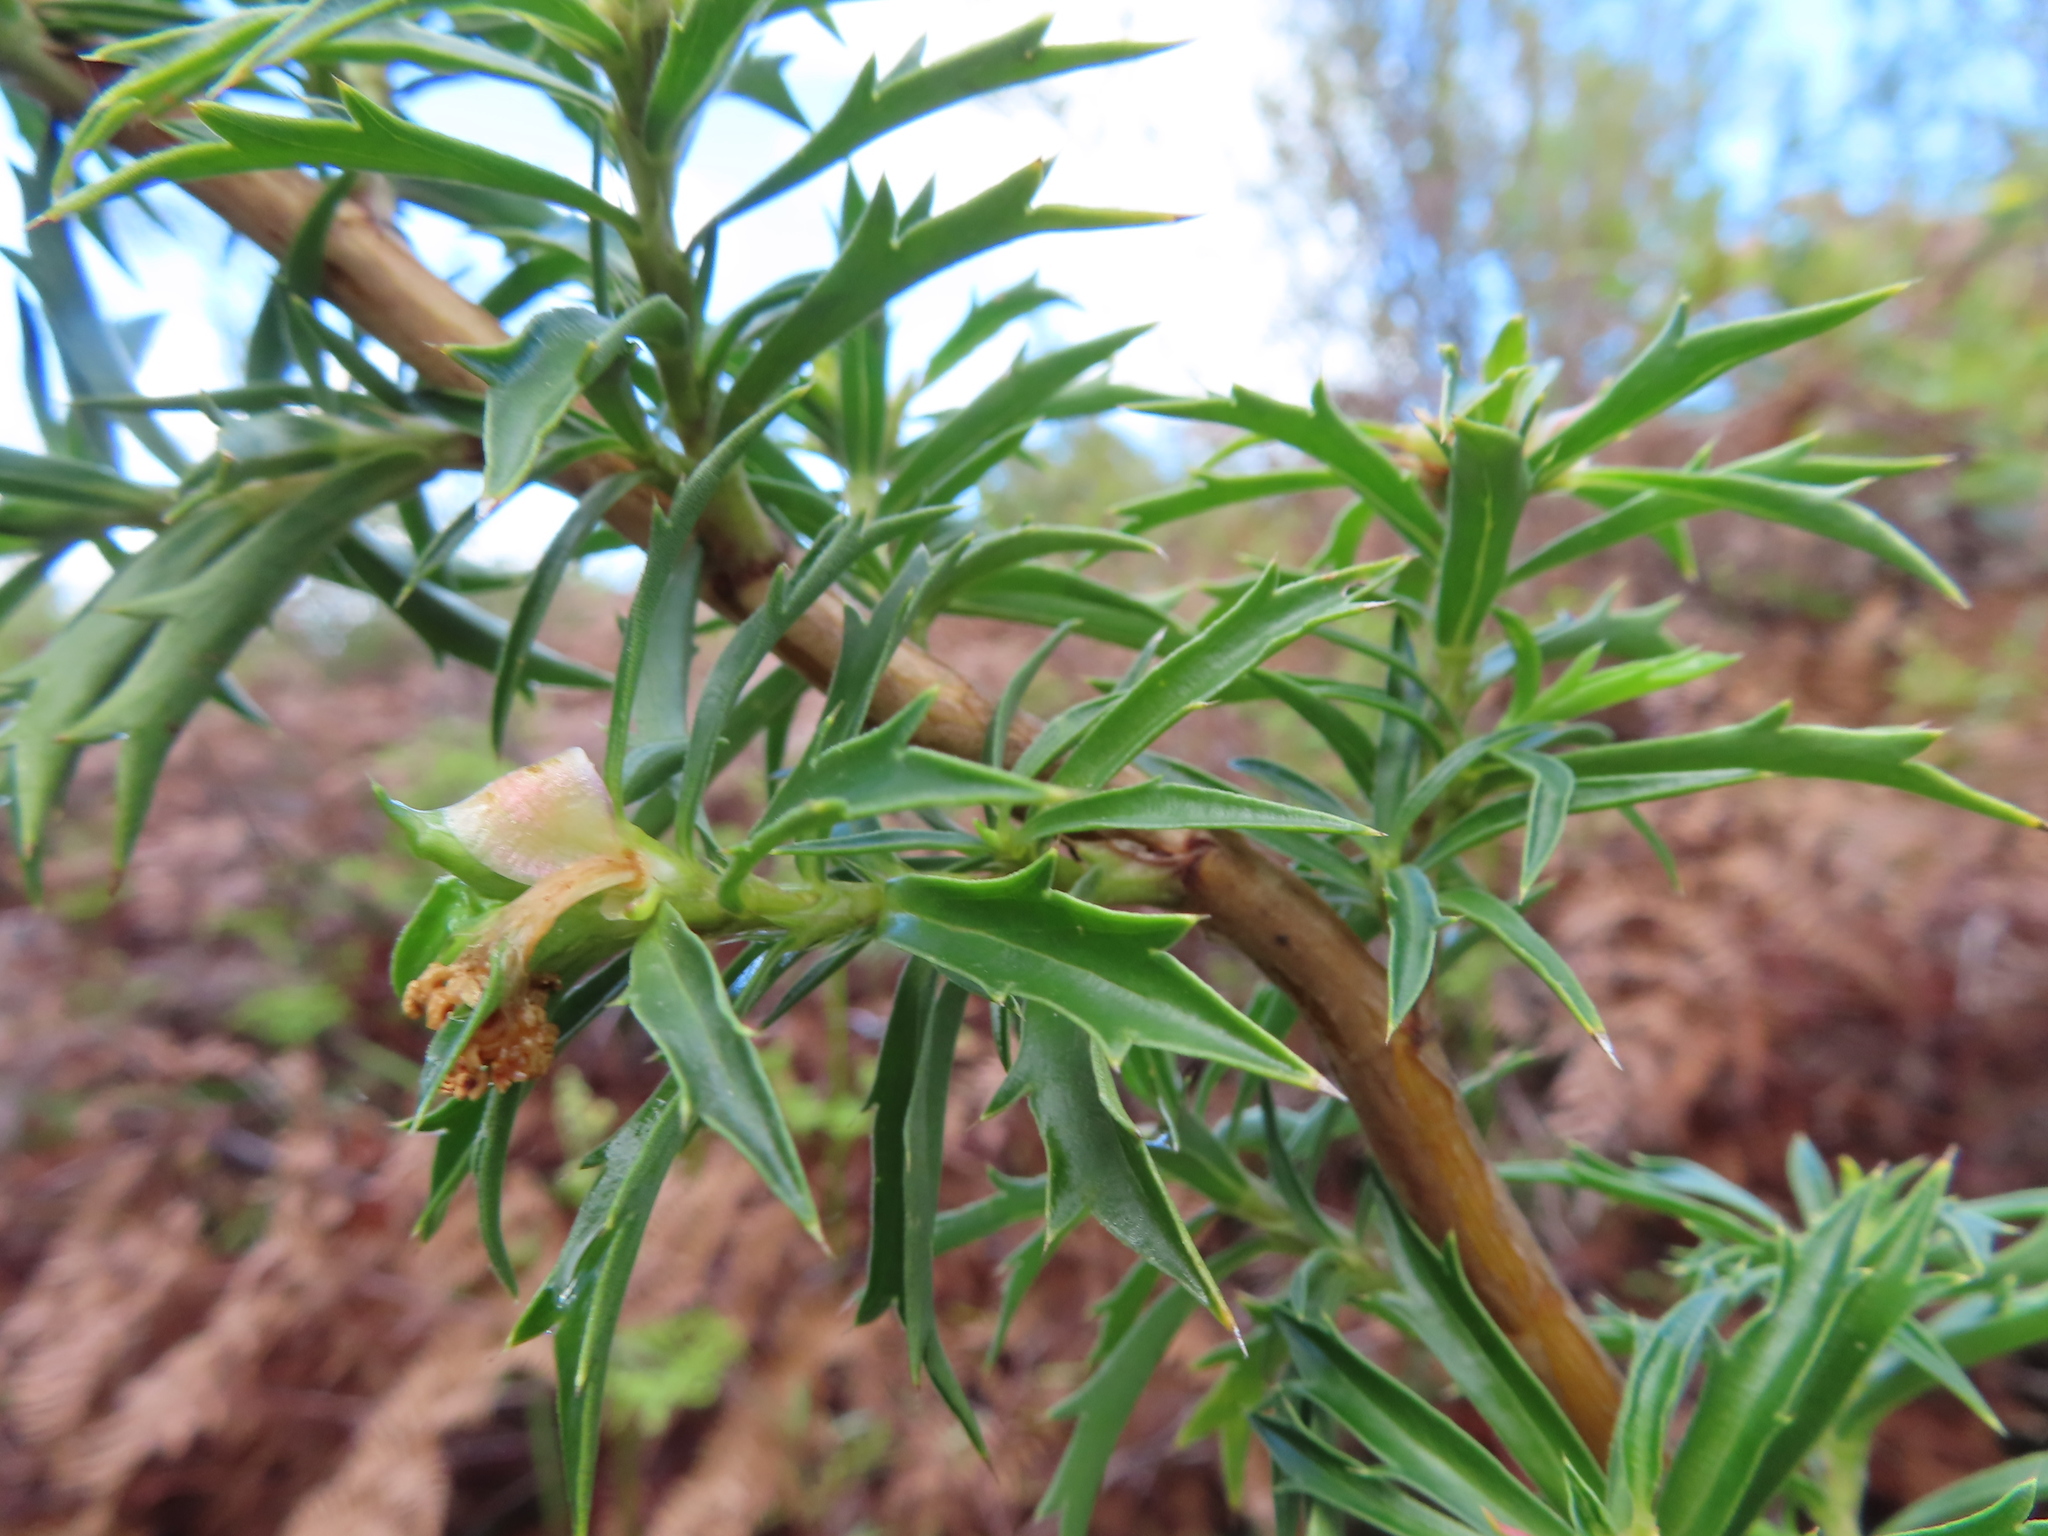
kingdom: Plantae
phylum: Tracheophyta
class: Magnoliopsida
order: Rosales
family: Rosaceae
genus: Cliffortia
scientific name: Cliffortia phillipsii
